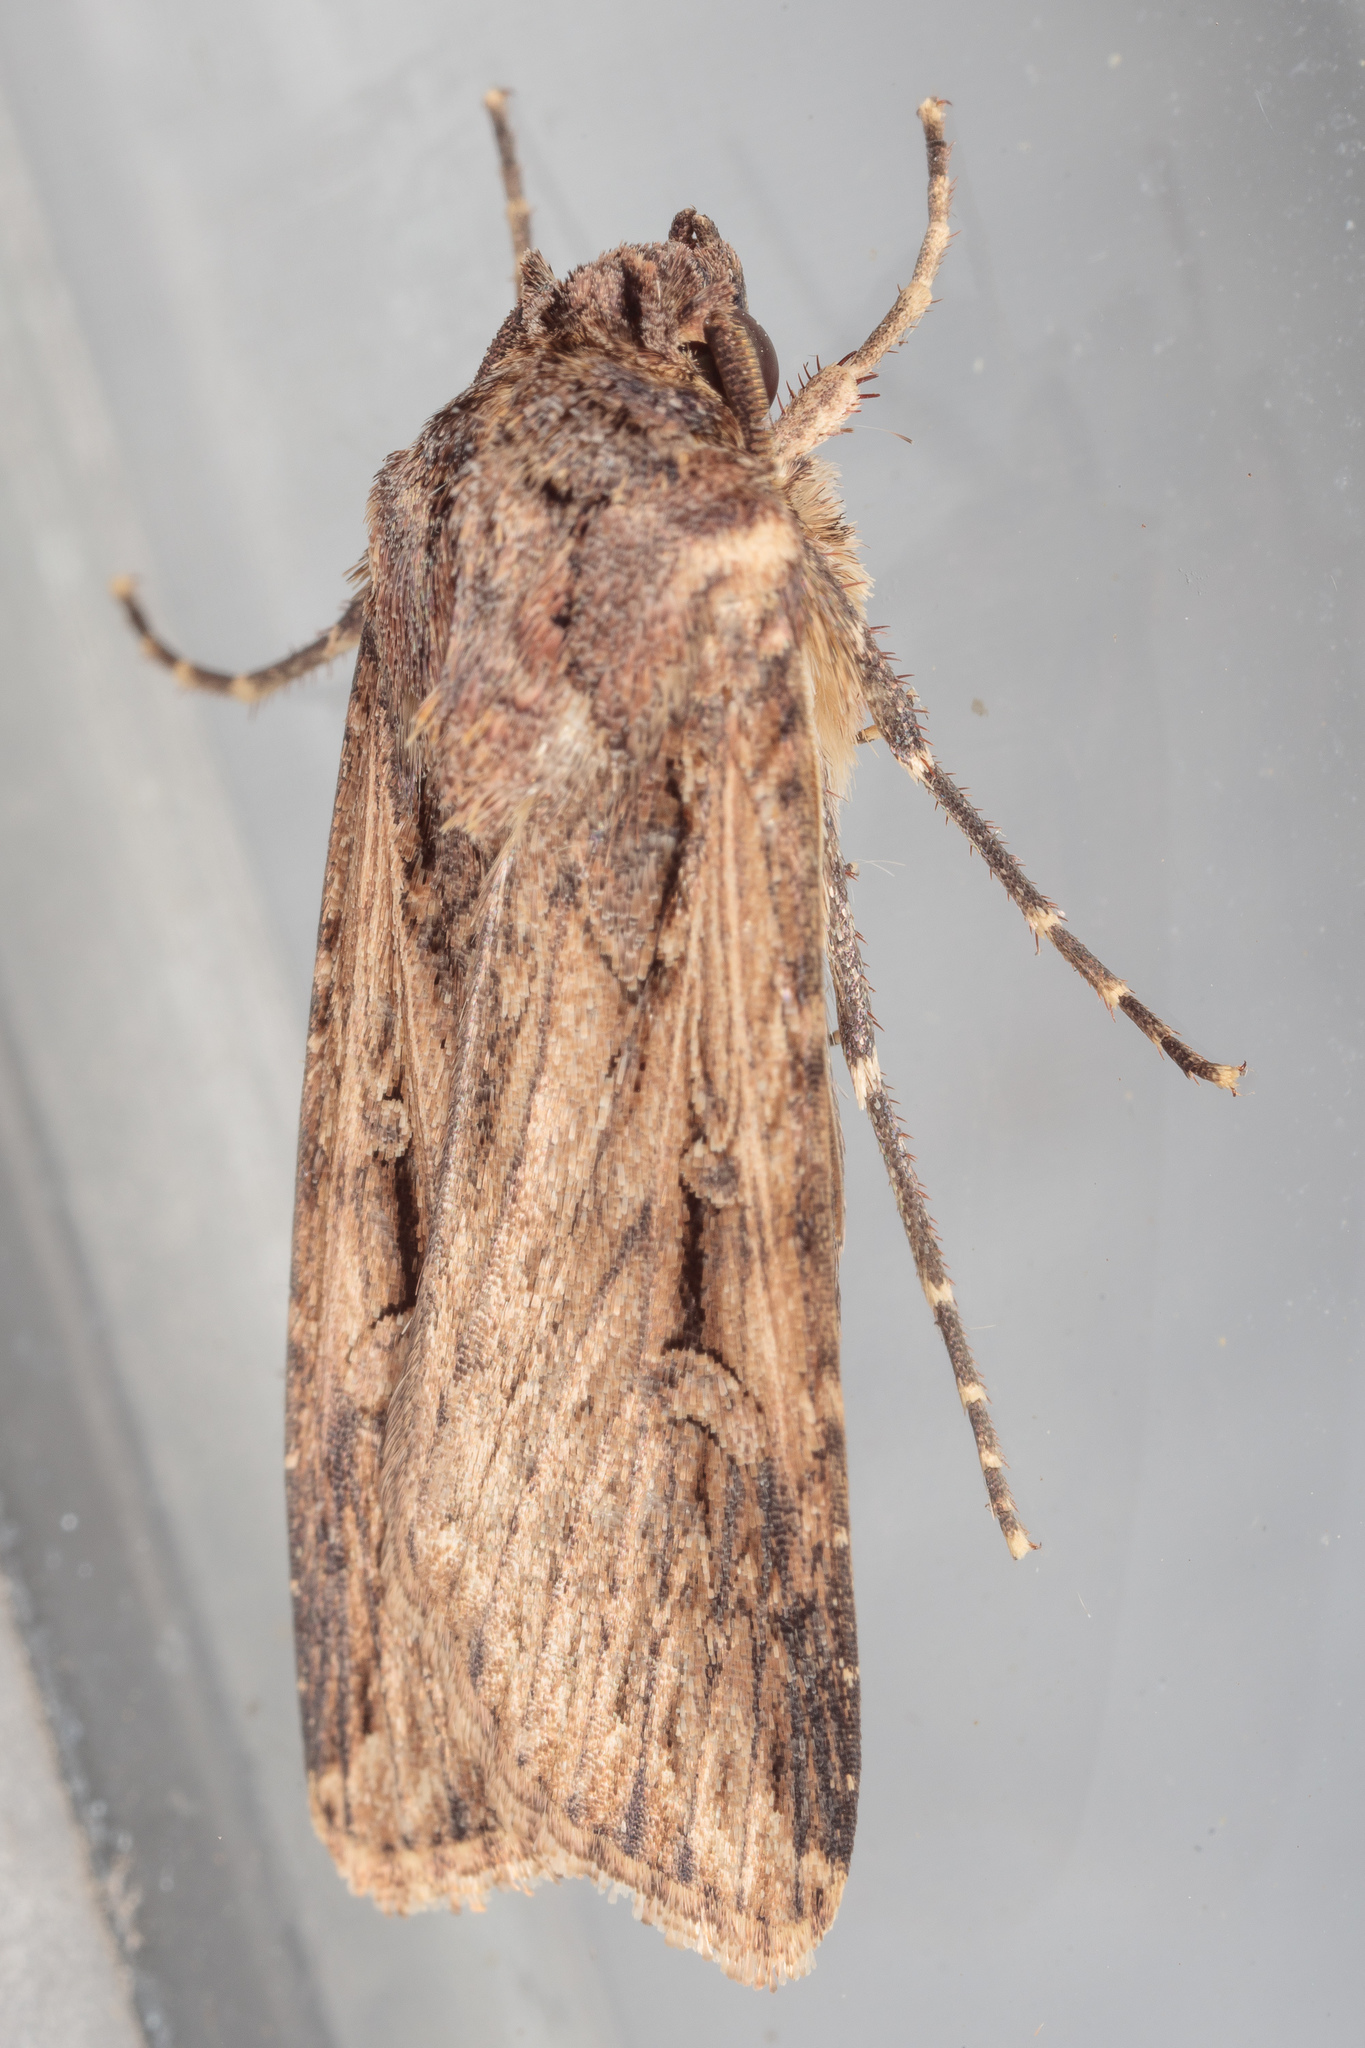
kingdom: Animalia
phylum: Arthropoda
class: Insecta
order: Lepidoptera
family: Noctuidae
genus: Feltia
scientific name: Feltia subterranea
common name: Granulate cutworm
